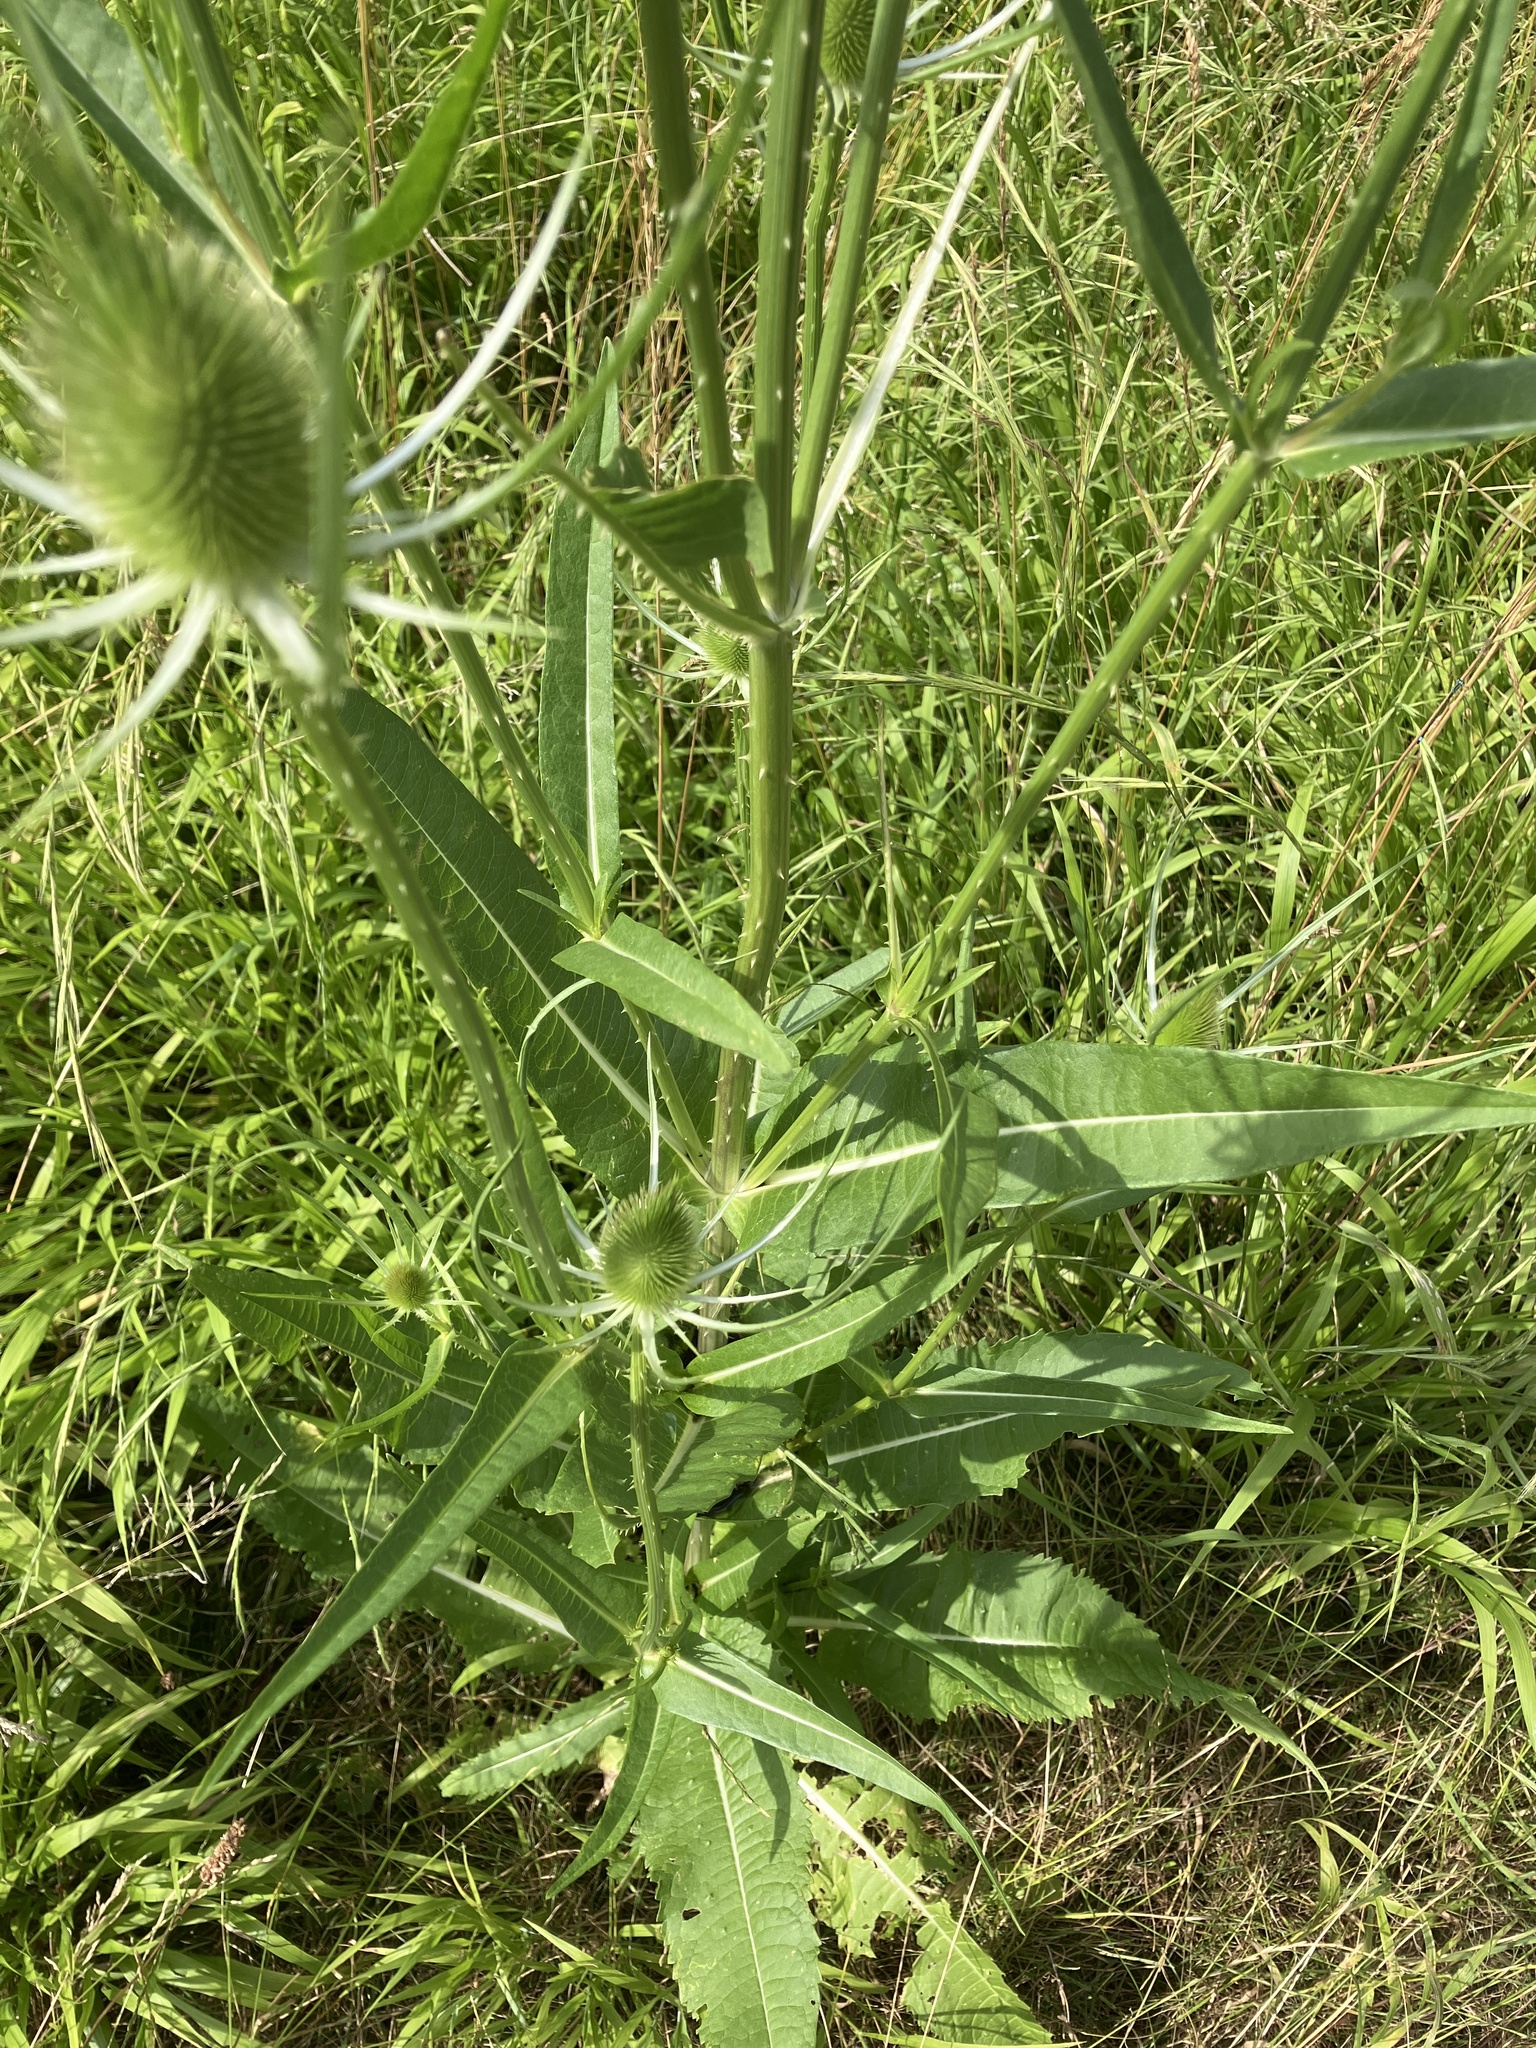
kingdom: Plantae
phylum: Tracheophyta
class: Magnoliopsida
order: Dipsacales
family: Caprifoliaceae
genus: Dipsacus
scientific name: Dipsacus fullonum
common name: Teasel
